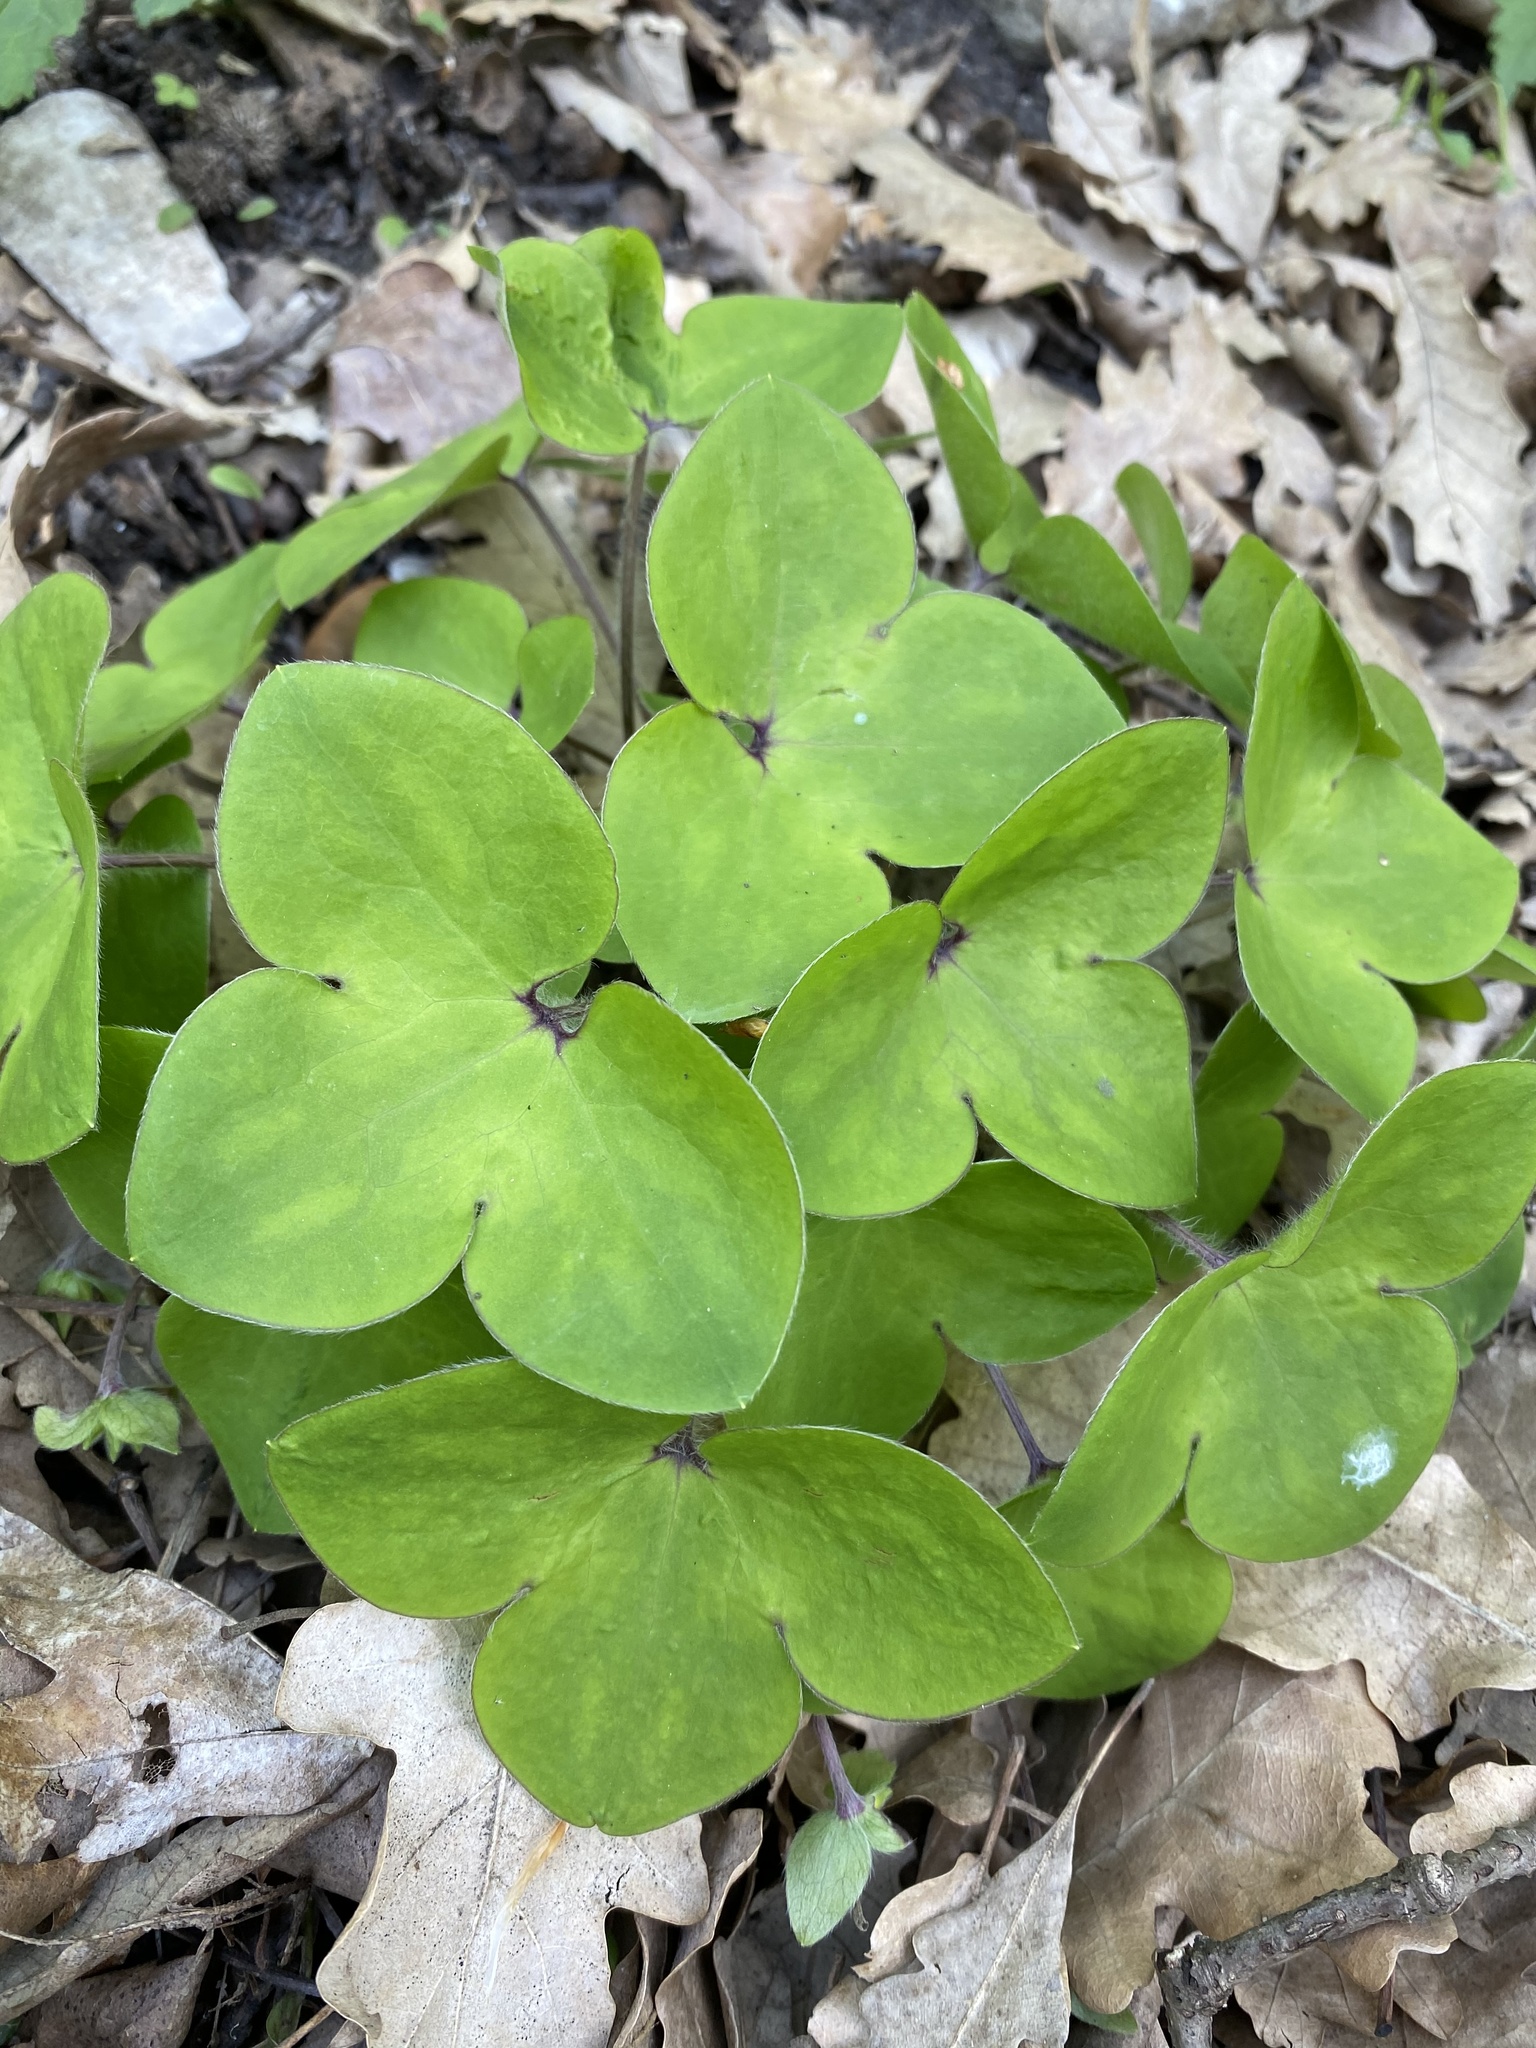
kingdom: Plantae
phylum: Tracheophyta
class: Magnoliopsida
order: Ranunculales
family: Ranunculaceae
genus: Hepatica
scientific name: Hepatica nobilis
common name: Liverleaf
